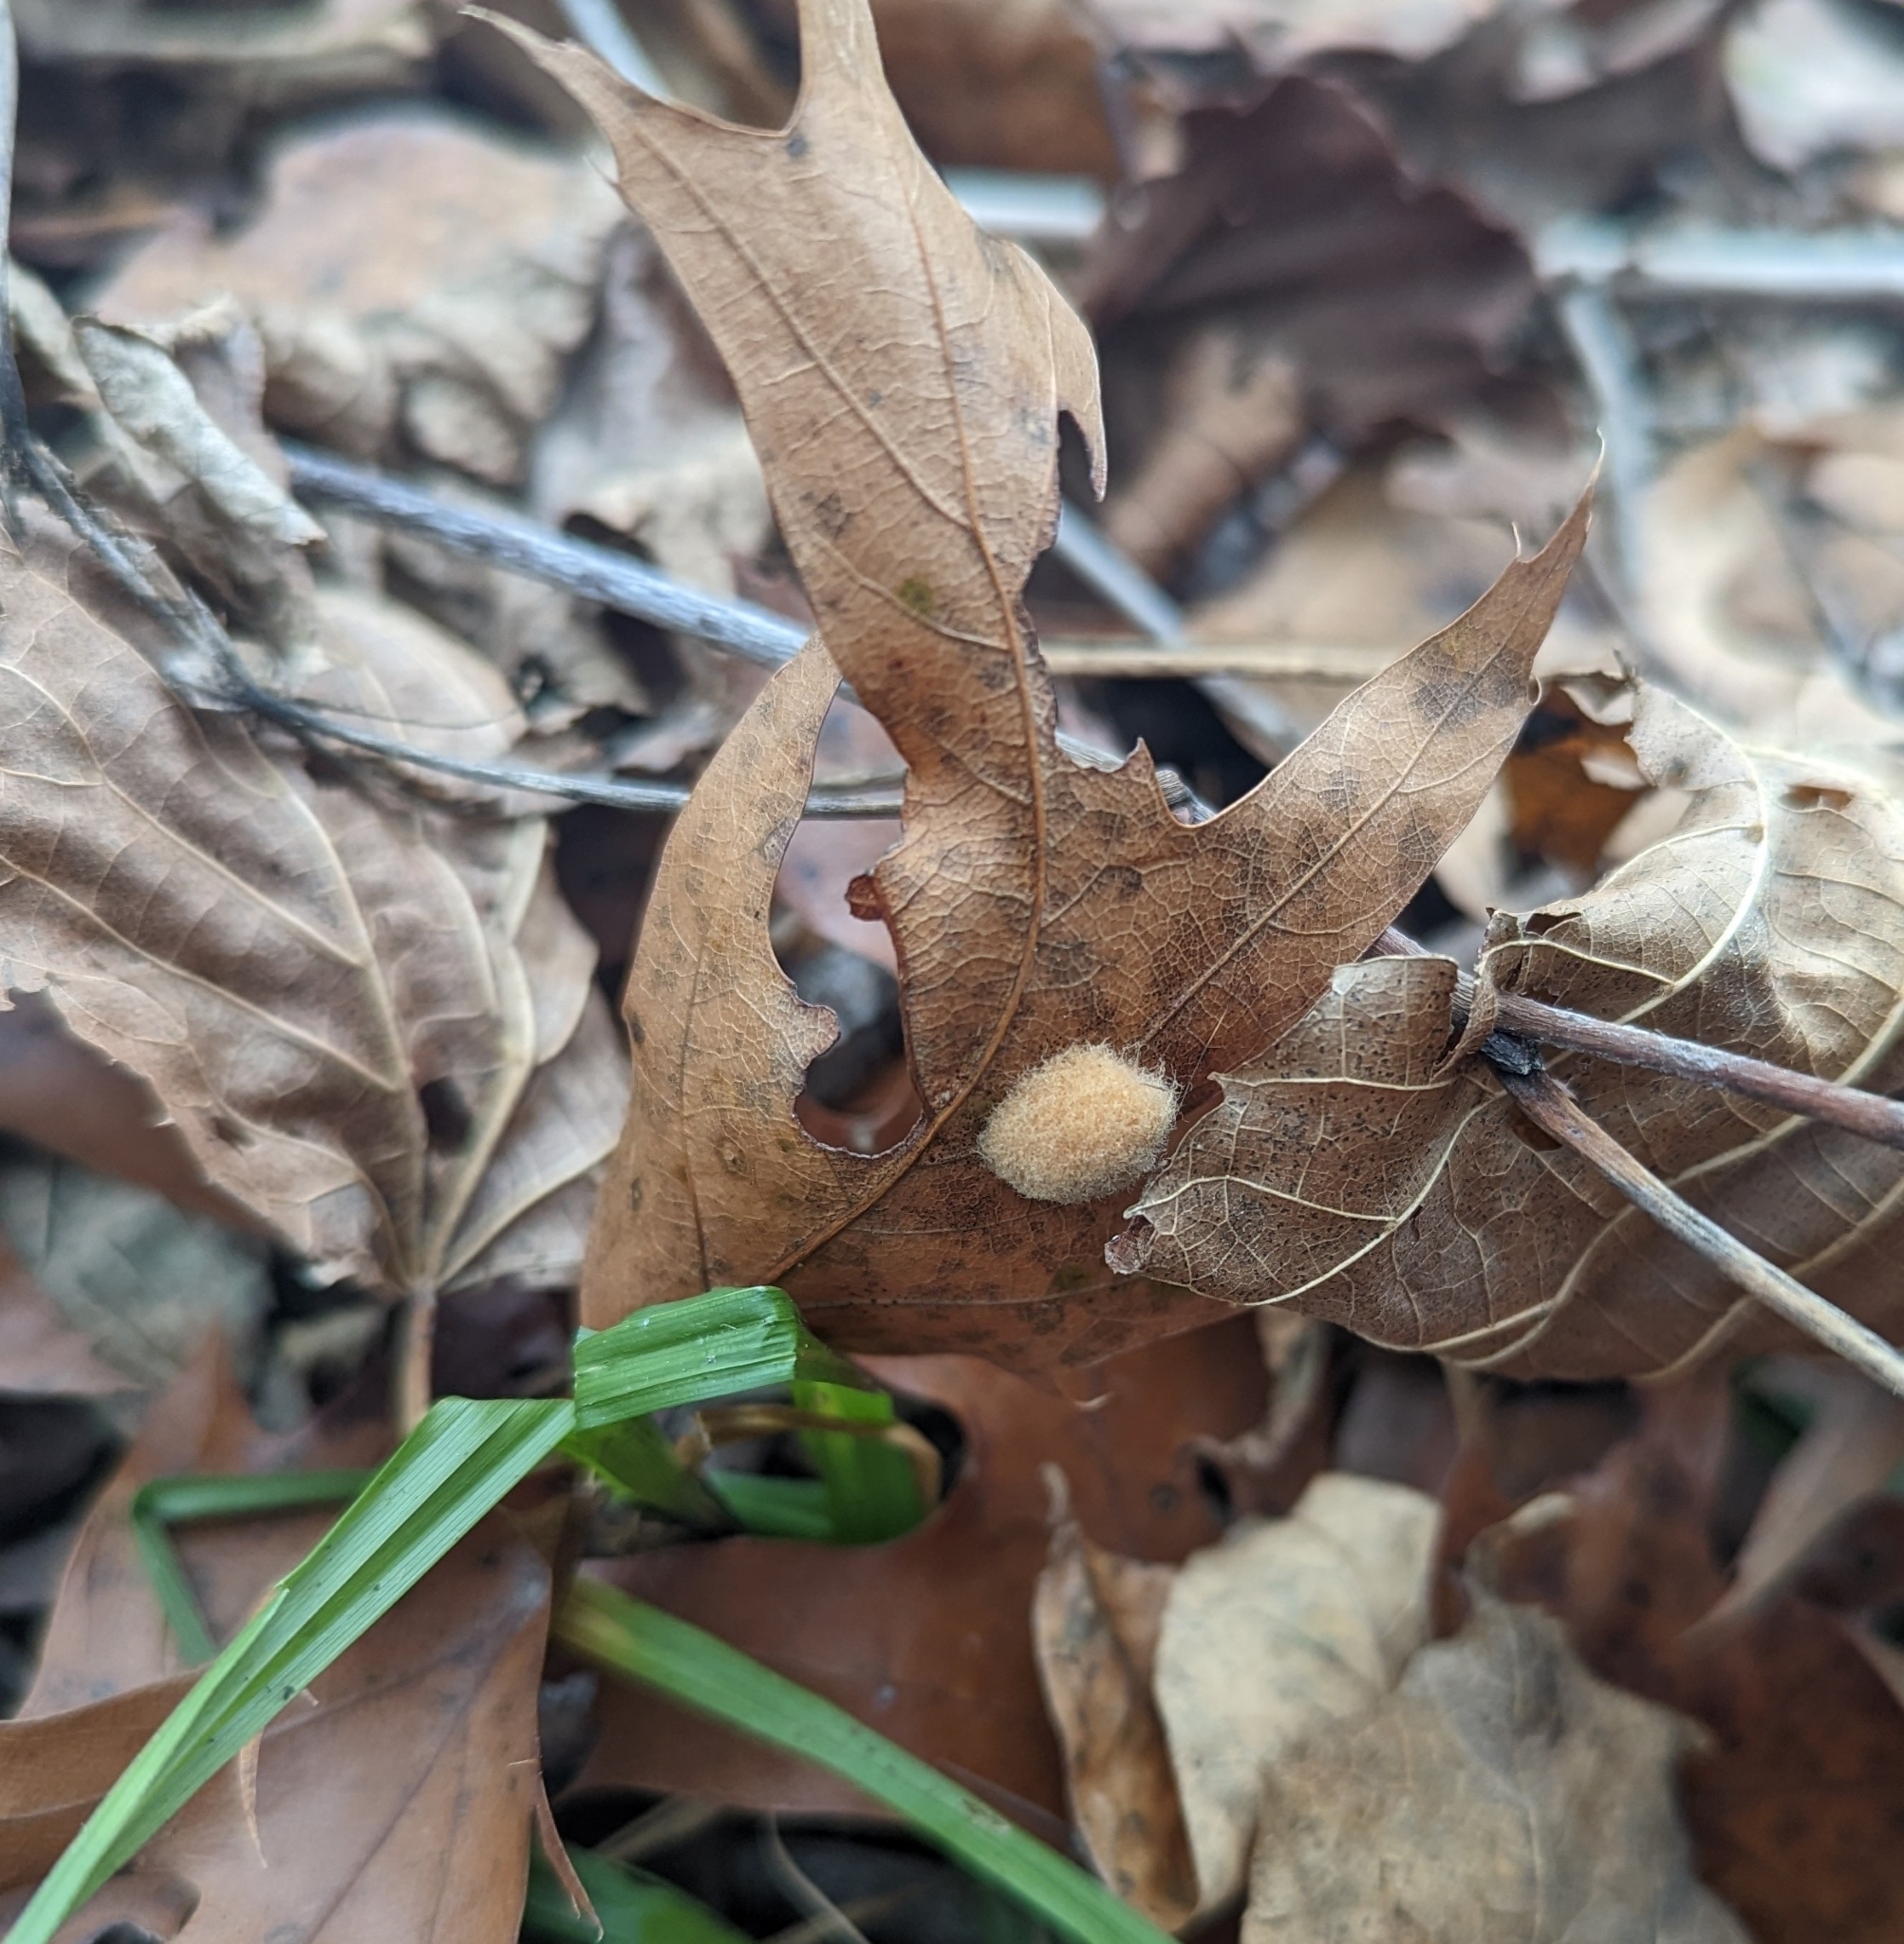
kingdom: Animalia
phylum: Arthropoda
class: Insecta
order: Hymenoptera
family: Cynipidae
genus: Callirhytis
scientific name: Callirhytis
